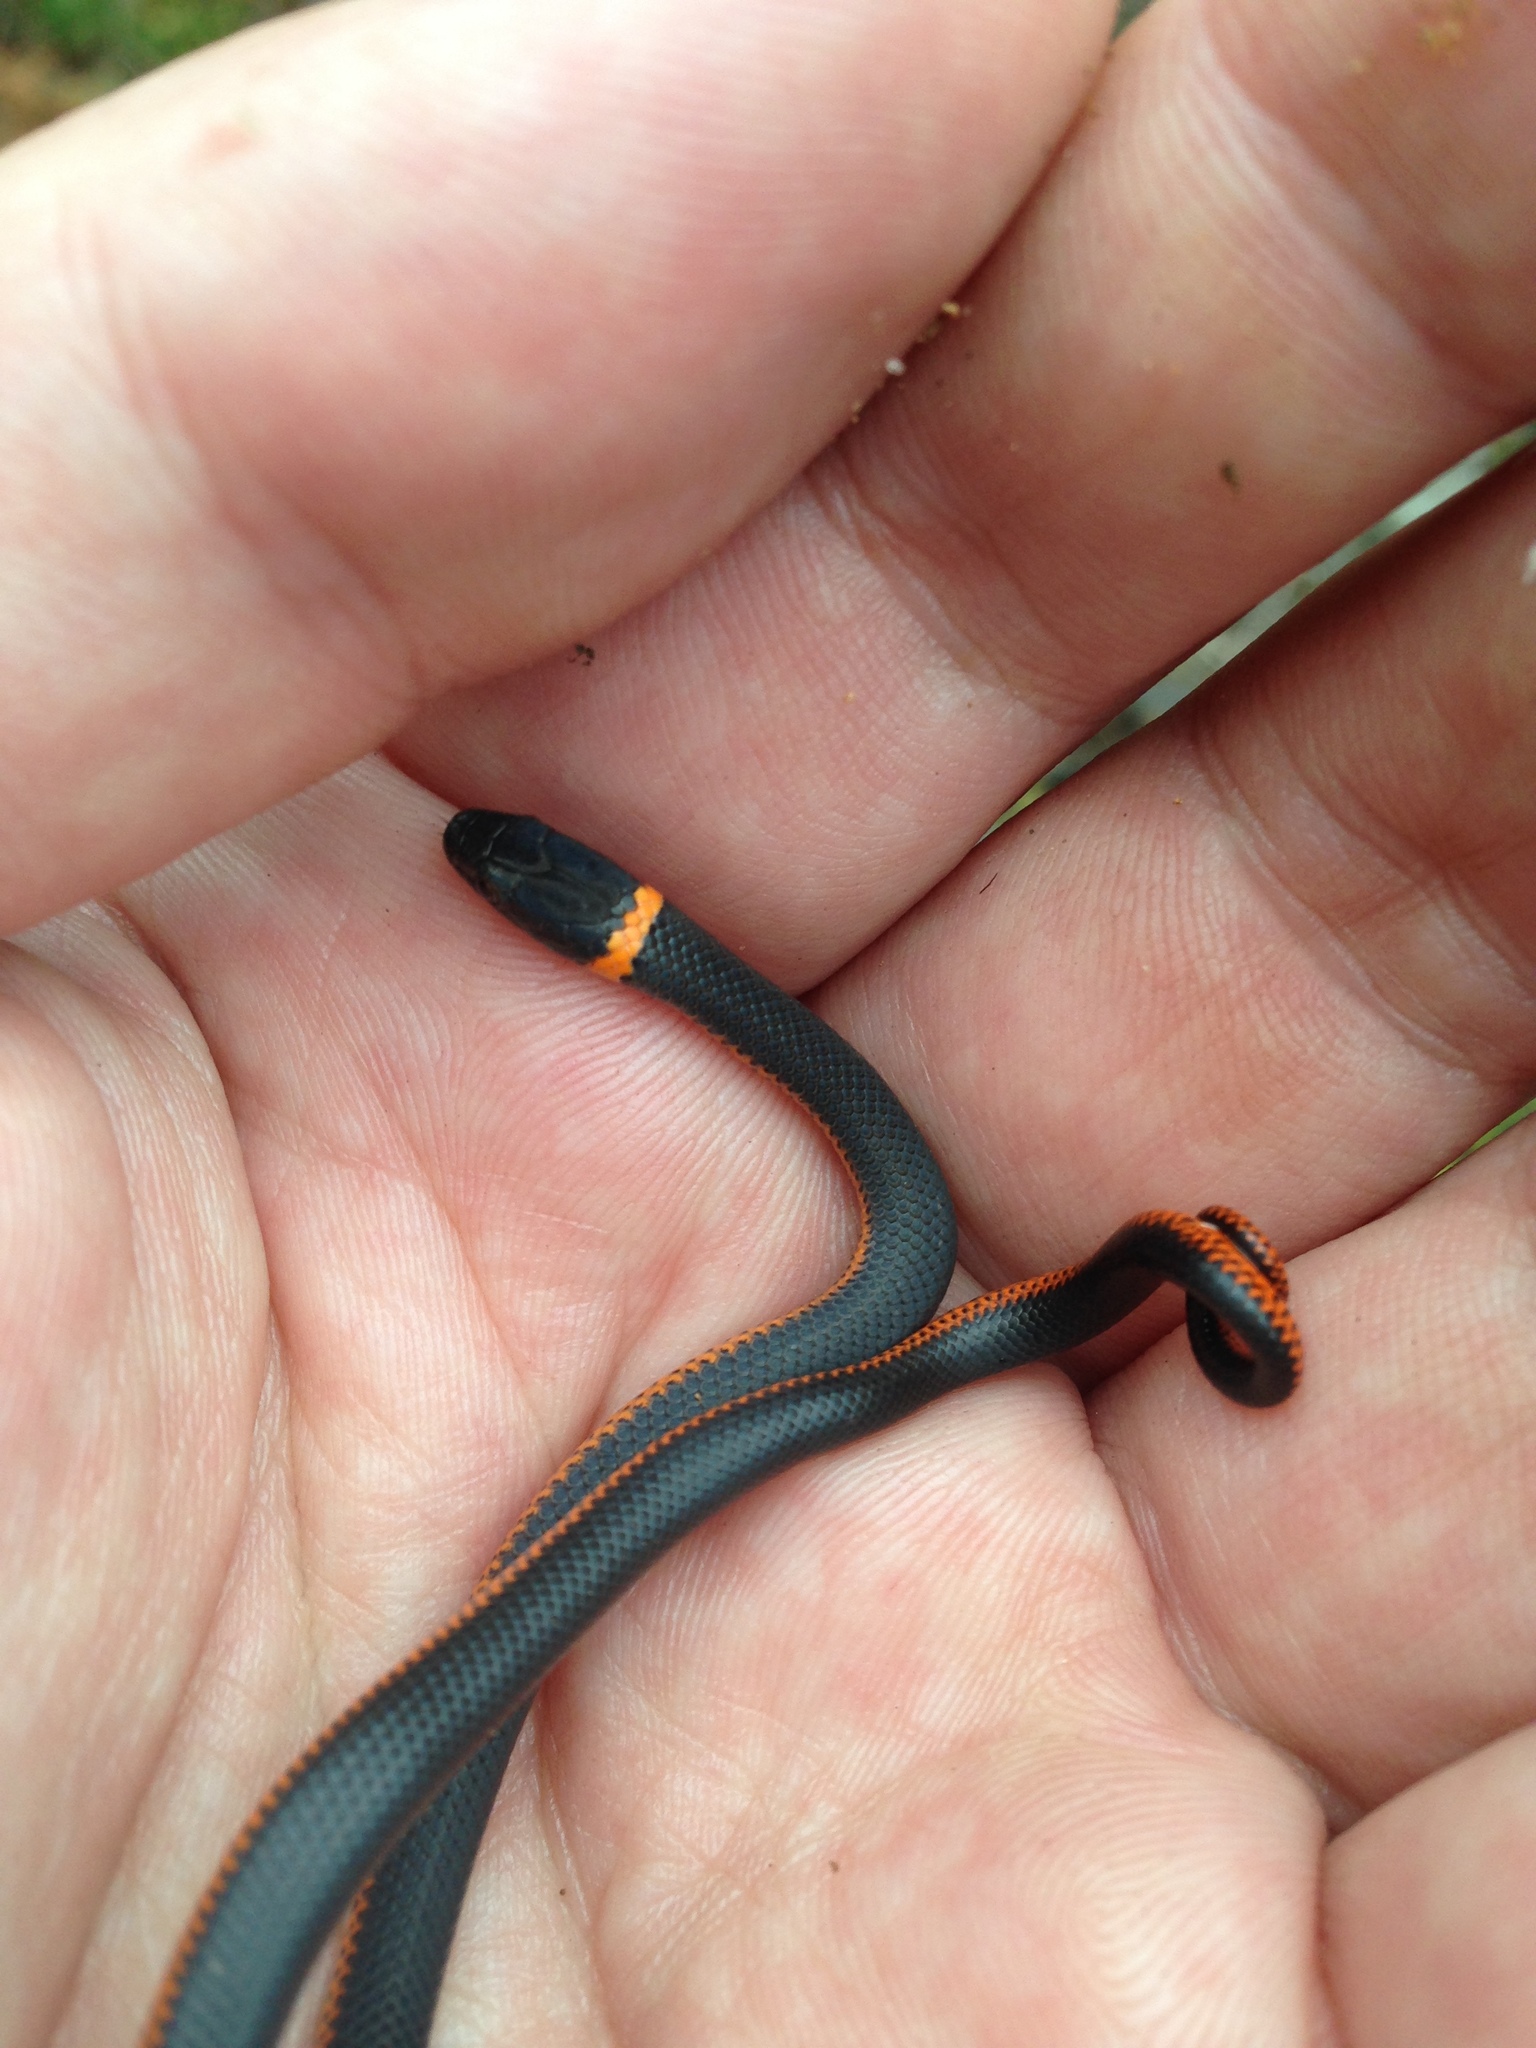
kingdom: Animalia
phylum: Chordata
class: Squamata
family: Colubridae
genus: Diadophis
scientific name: Diadophis punctatus
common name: Ringneck snake
